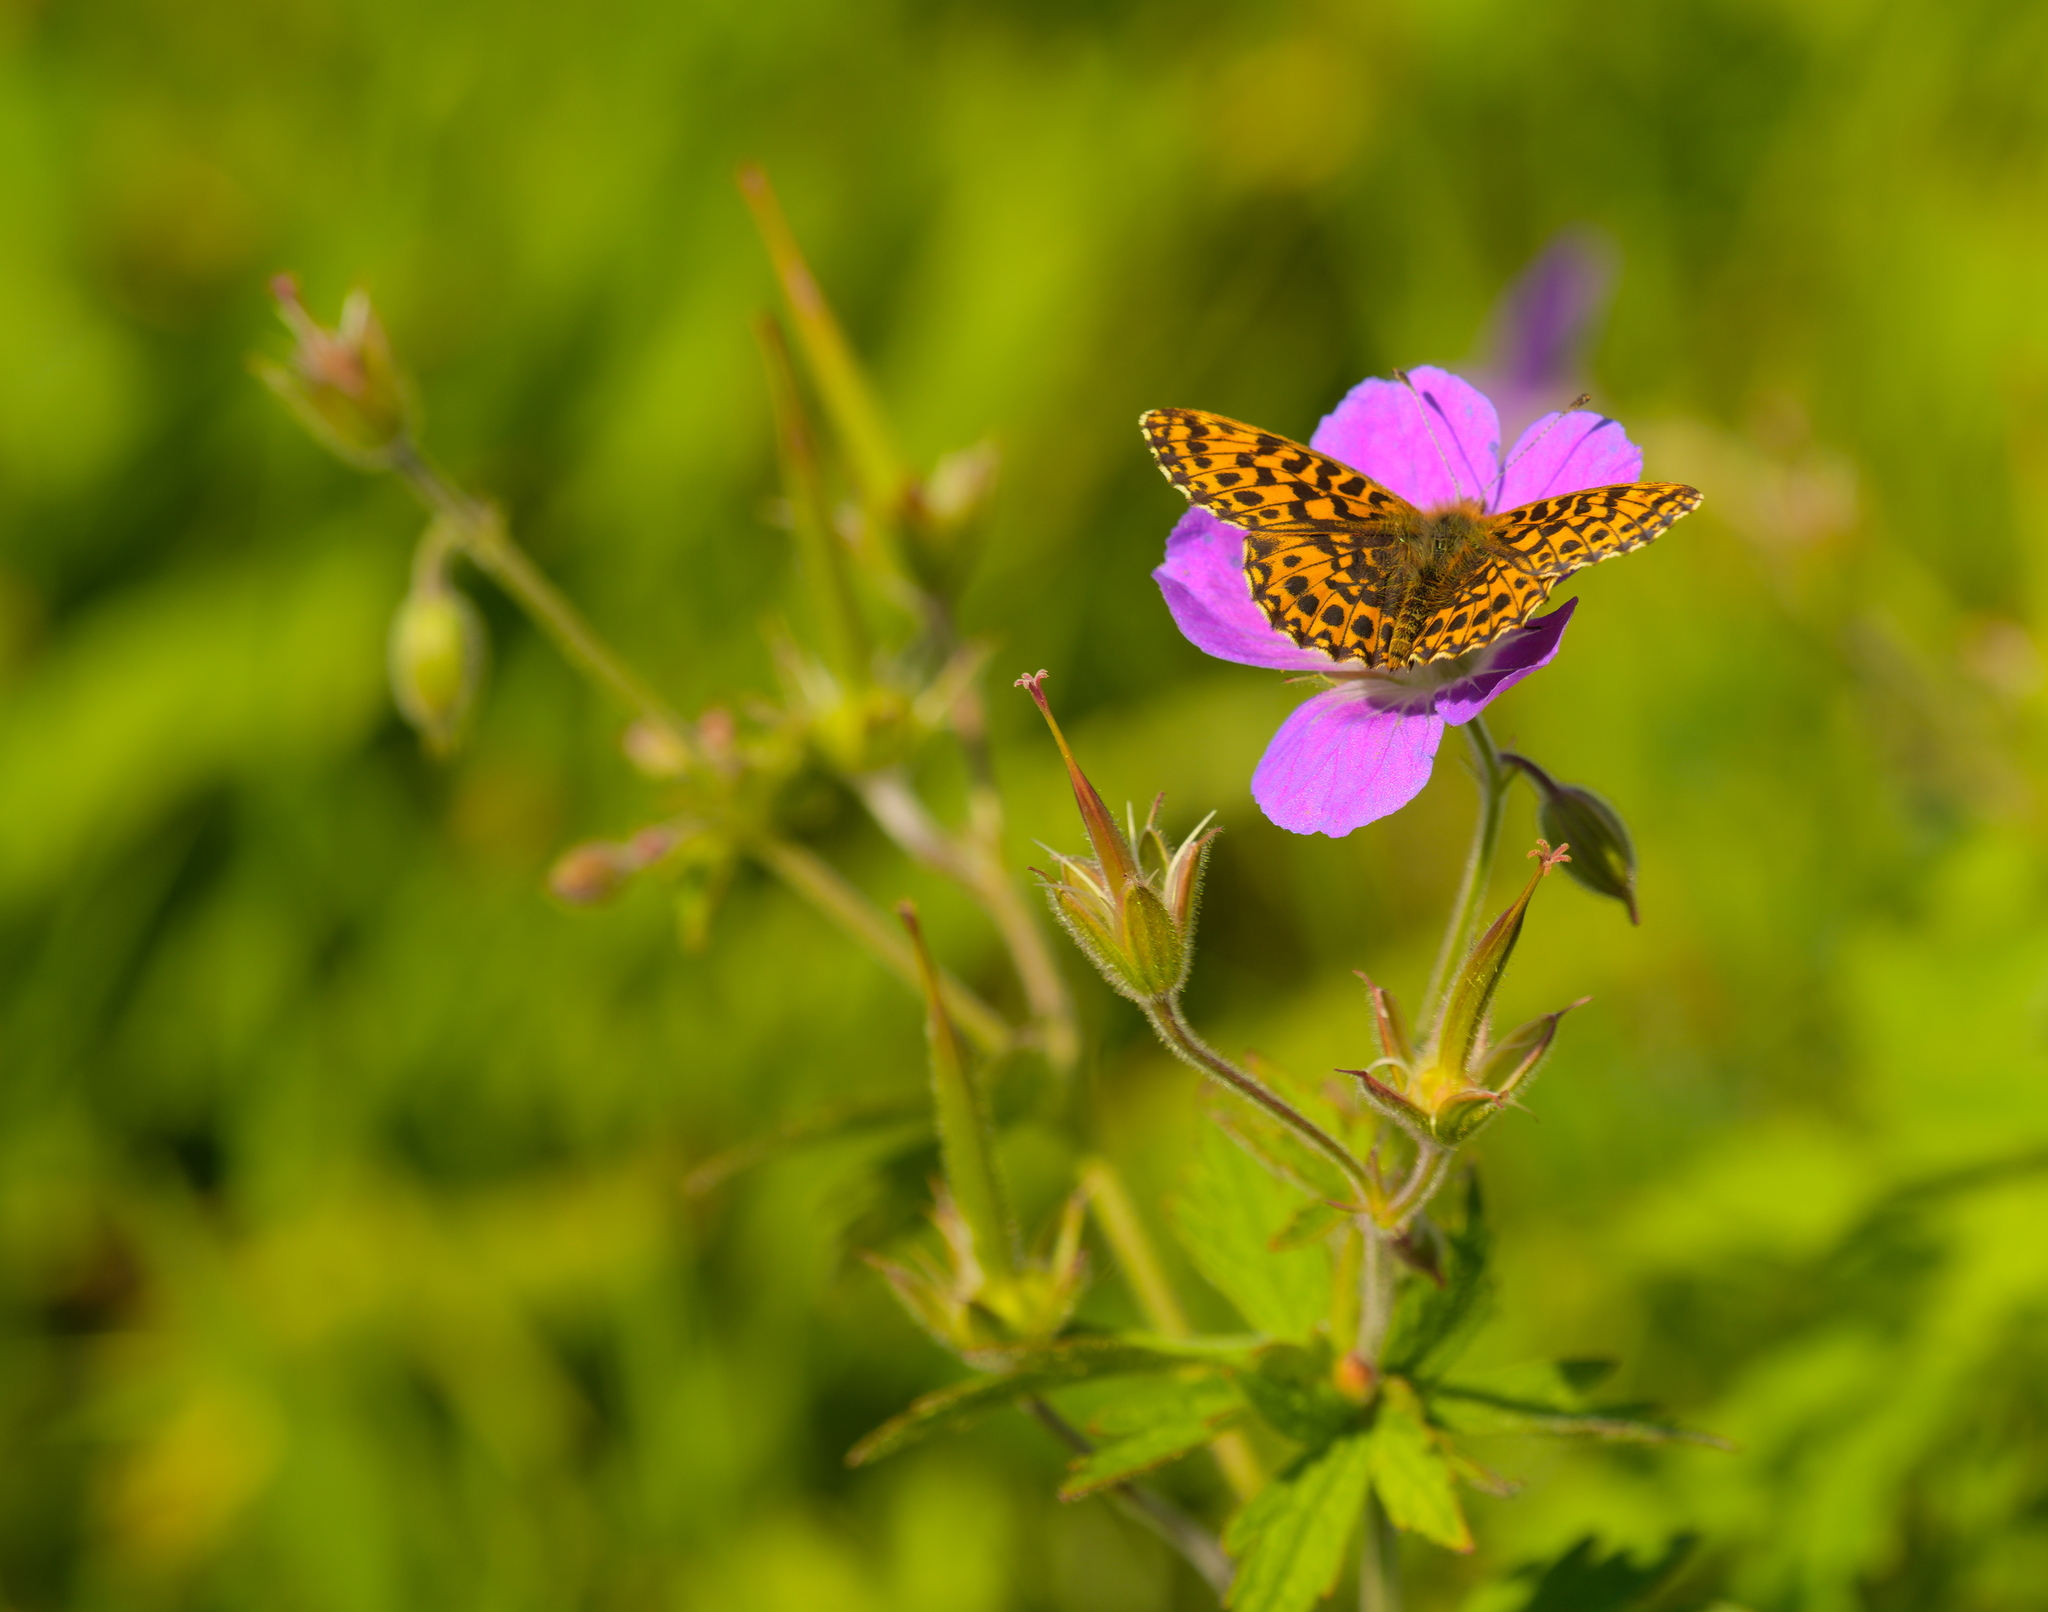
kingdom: Animalia
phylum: Arthropoda
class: Insecta
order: Lepidoptera
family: Nymphalidae
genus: Boloria
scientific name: Boloria dia
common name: Weaver's fritillary
